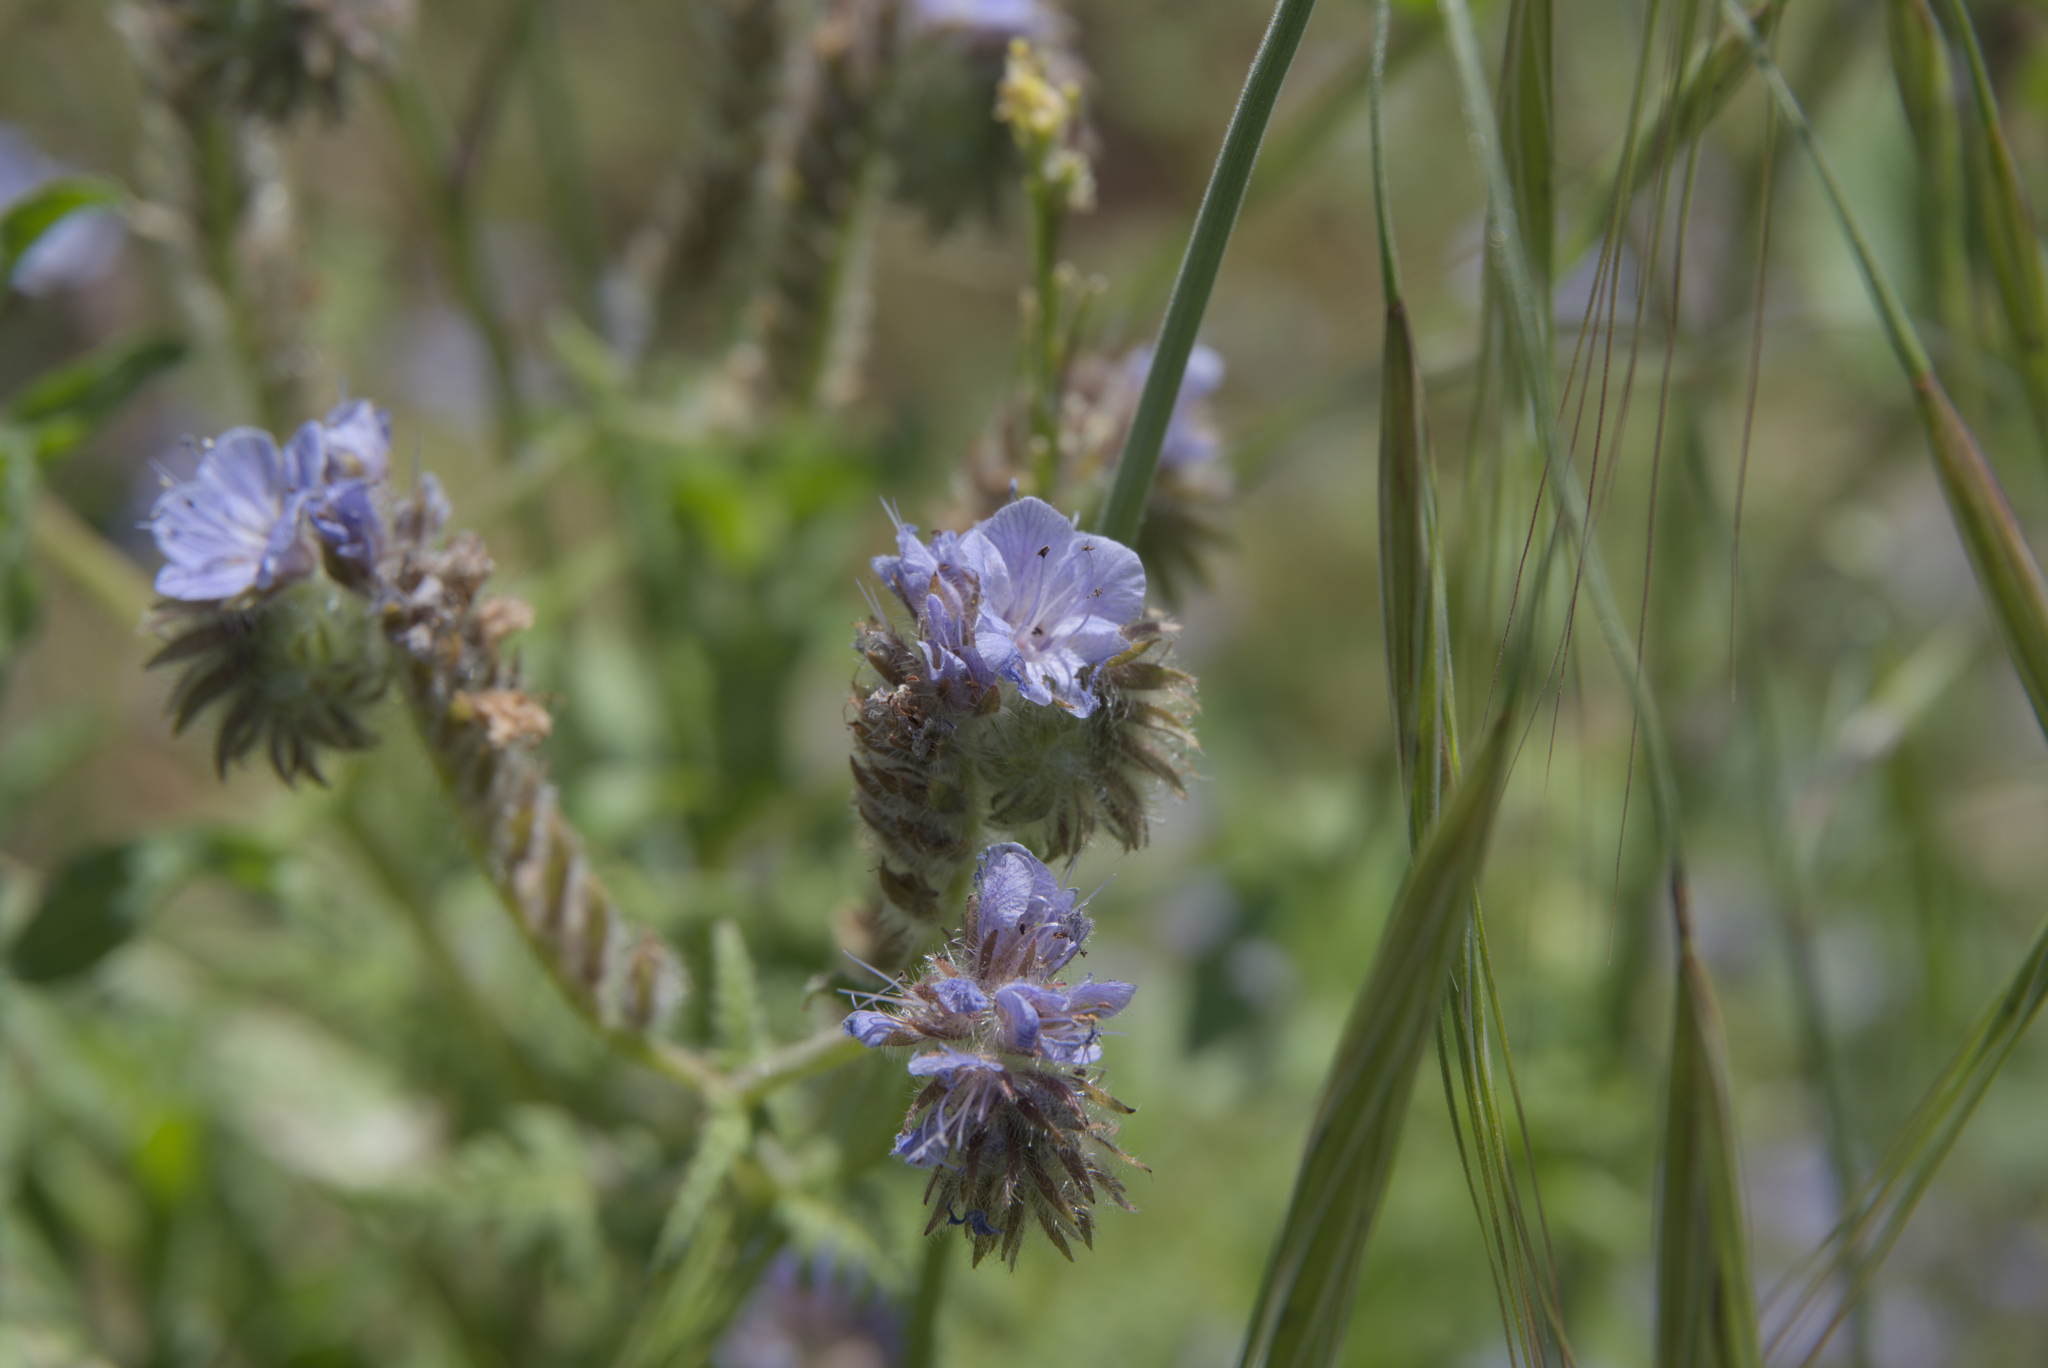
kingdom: Plantae
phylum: Tracheophyta
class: Magnoliopsida
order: Boraginales
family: Hydrophyllaceae
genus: Phacelia
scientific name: Phacelia distans
